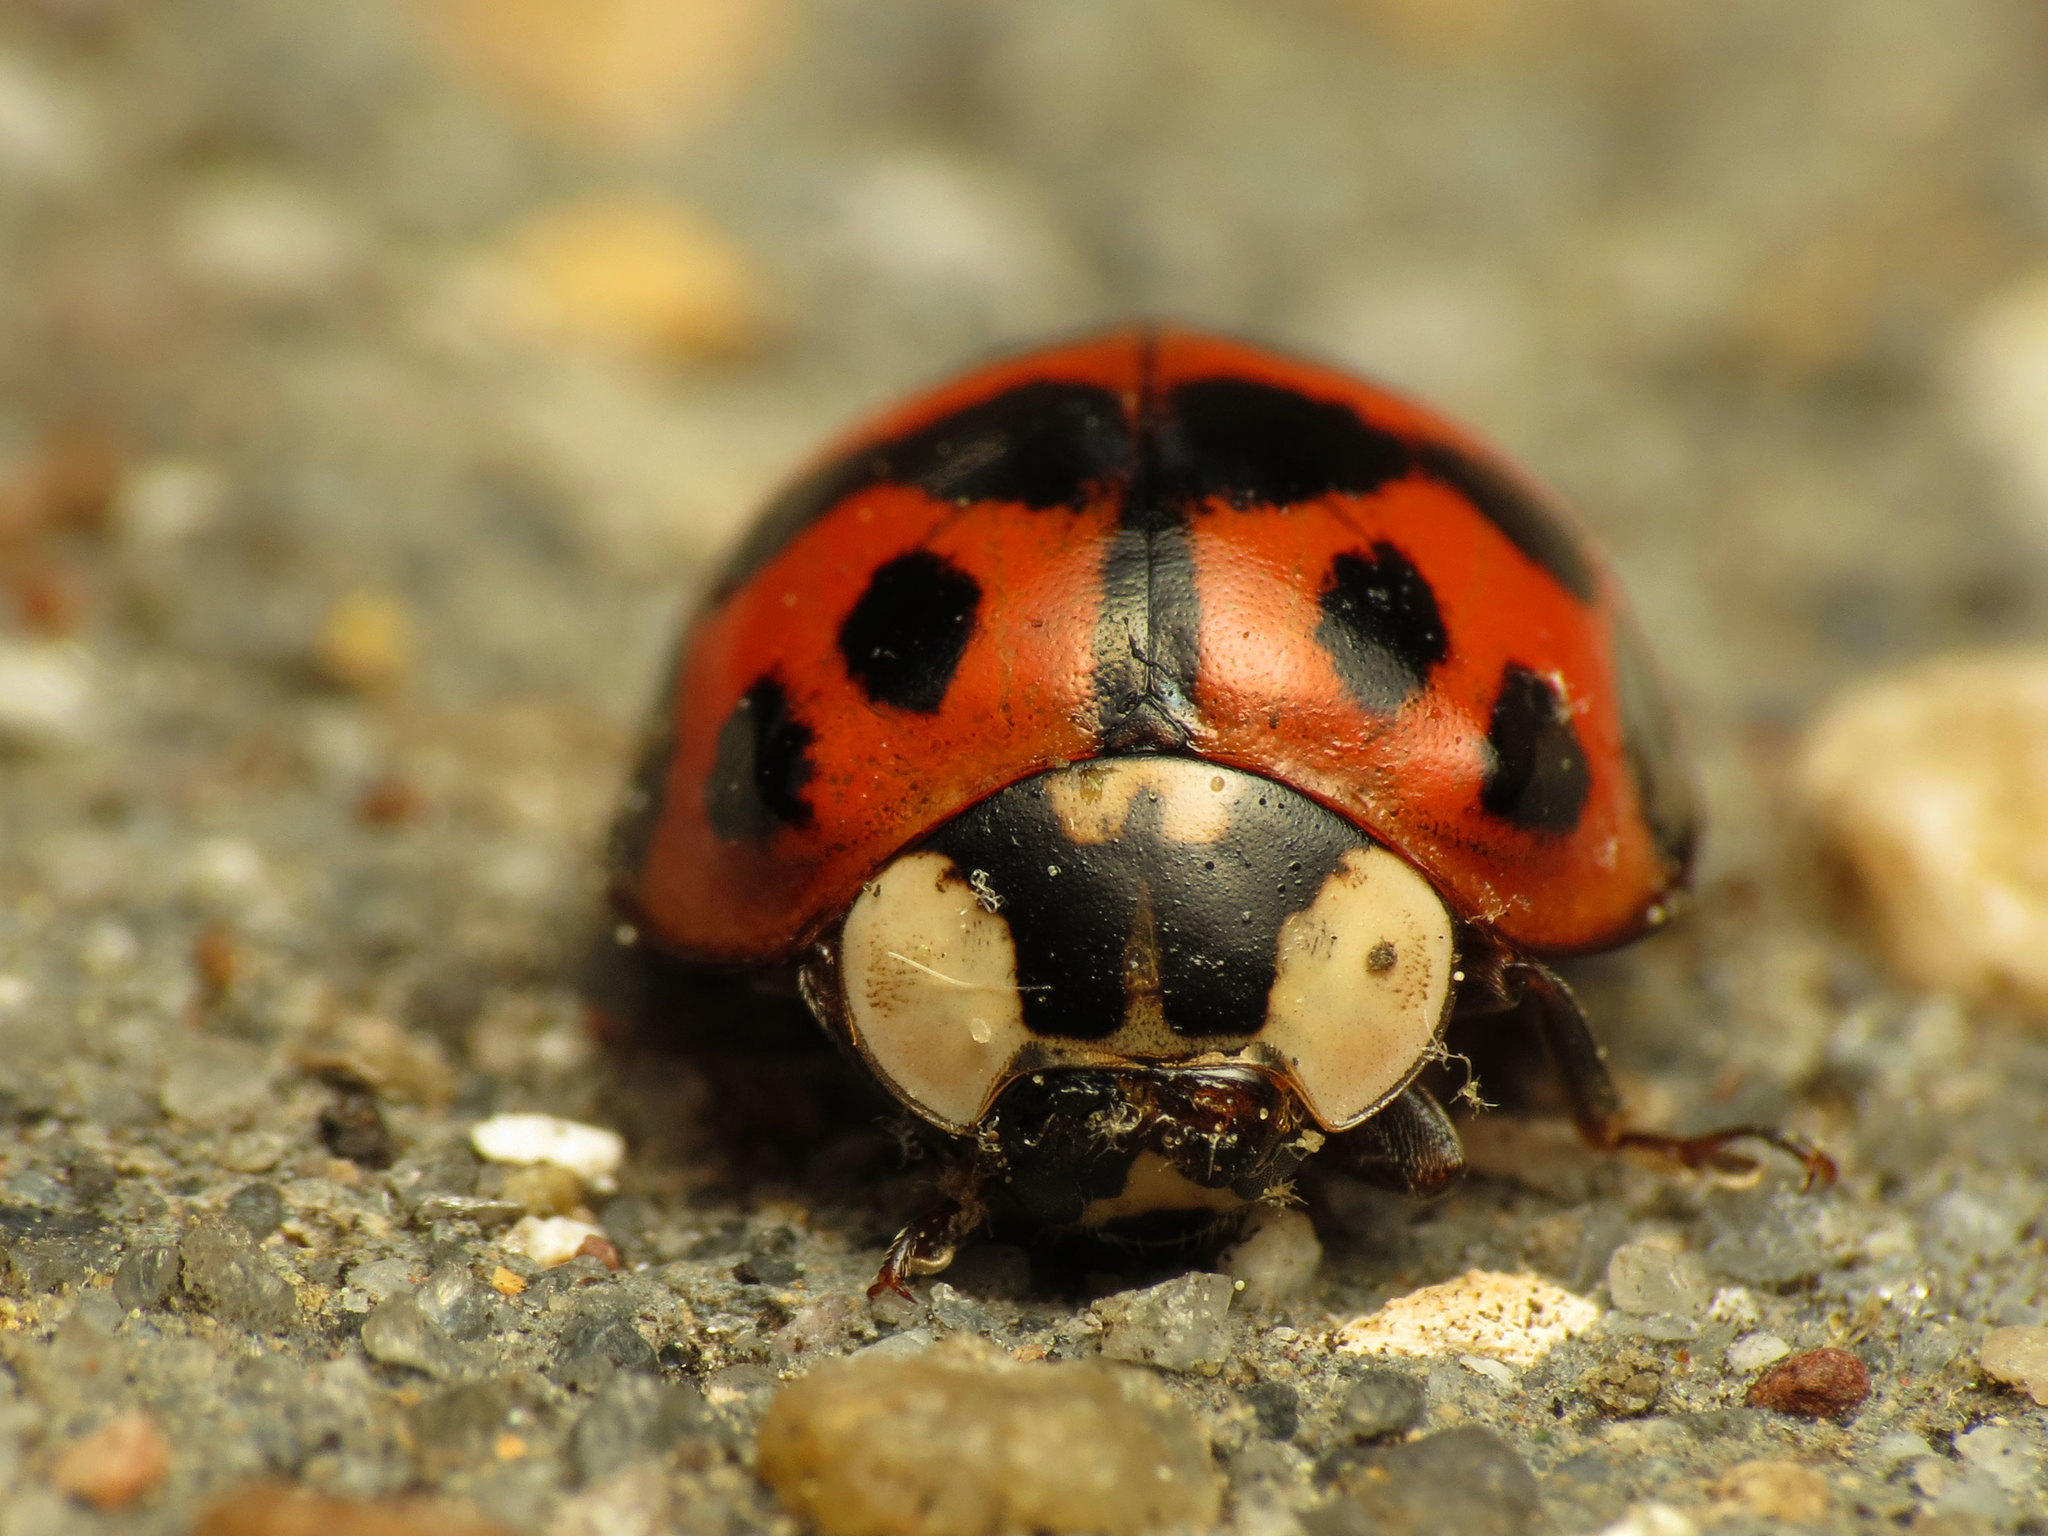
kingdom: Animalia
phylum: Arthropoda
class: Insecta
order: Coleoptera
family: Coccinellidae
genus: Harmonia
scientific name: Harmonia axyridis
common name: Harlequin ladybird
